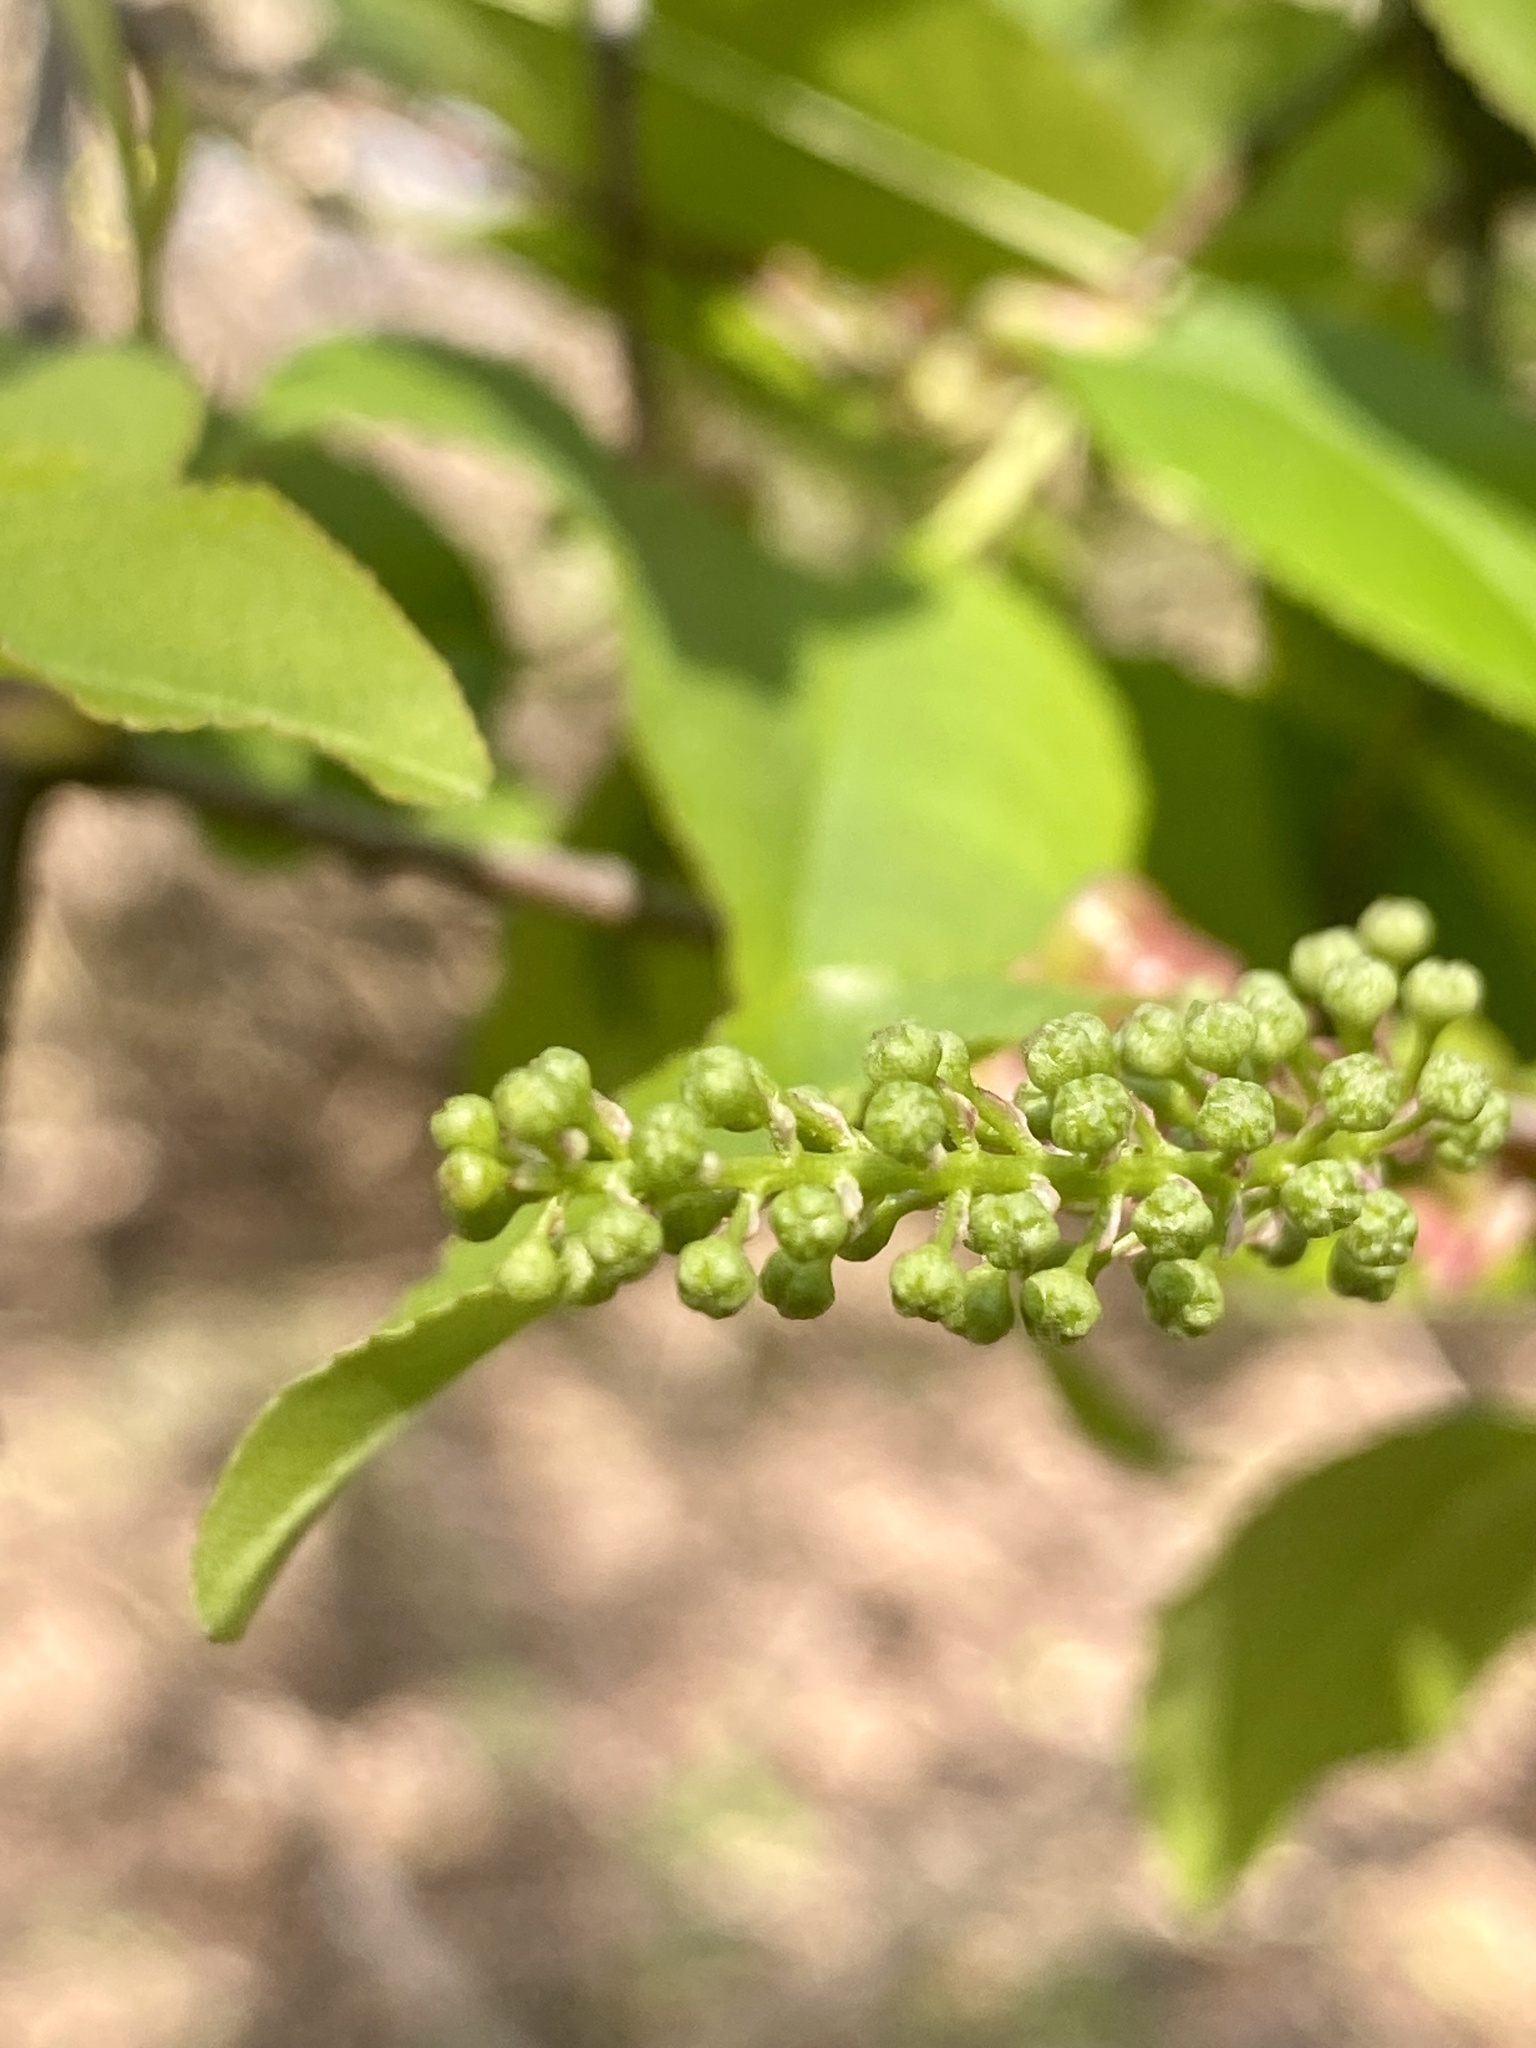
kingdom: Plantae
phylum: Tracheophyta
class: Magnoliopsida
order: Rosales
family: Rosaceae
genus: Prunus
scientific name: Prunus serotina
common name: Black cherry
